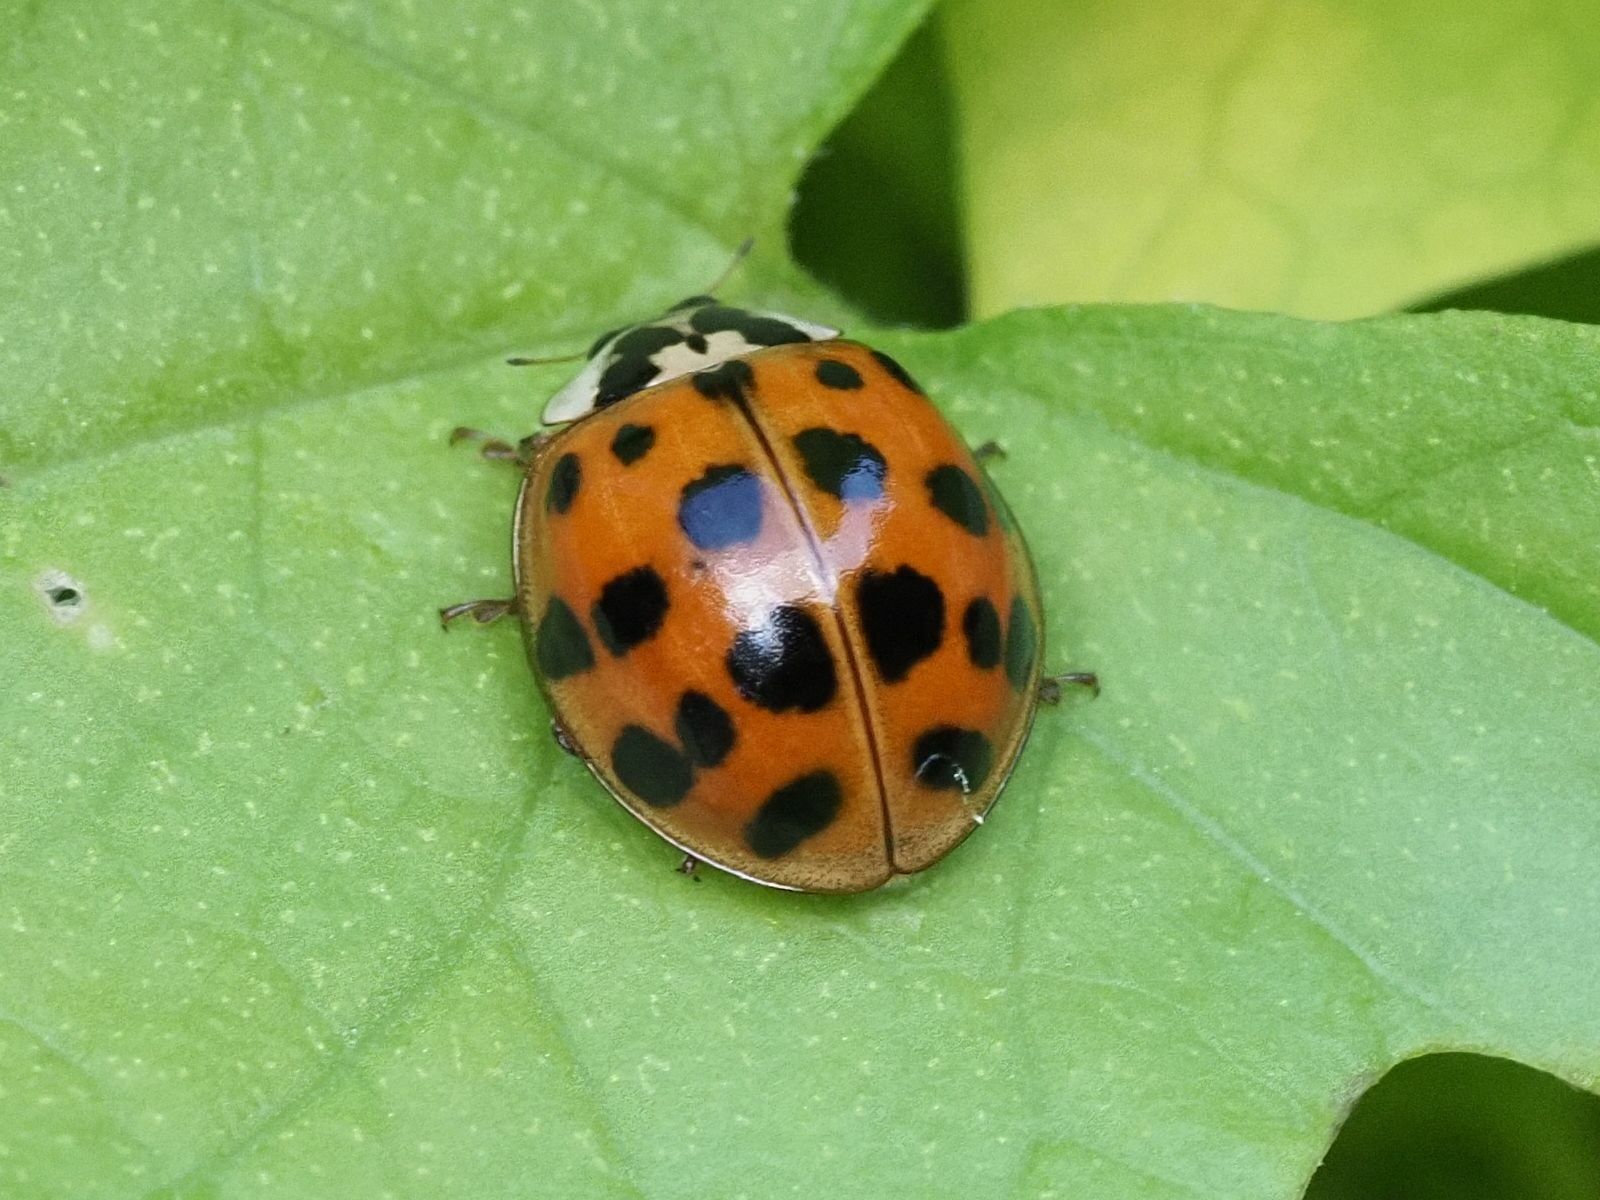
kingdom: Animalia
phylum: Arthropoda
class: Insecta
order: Coleoptera
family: Coccinellidae
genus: Harmonia
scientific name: Harmonia axyridis
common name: Harlequin ladybird
